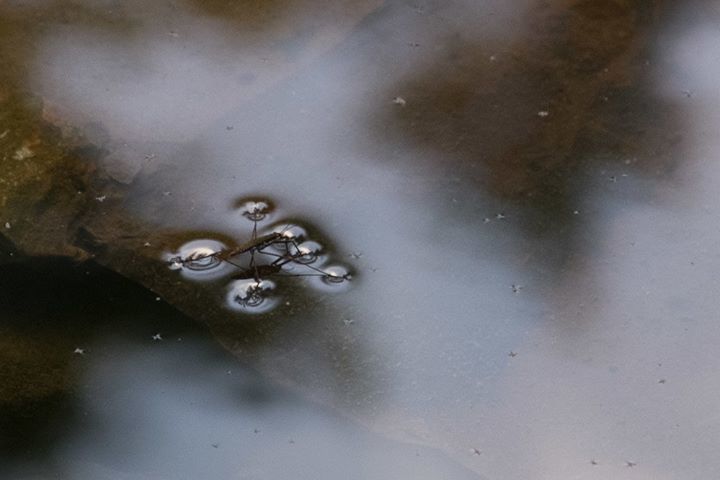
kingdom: Animalia
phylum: Arthropoda
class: Insecta
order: Hemiptera
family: Gerridae
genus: Aquarius
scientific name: Aquarius remigis
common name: Common water strider
